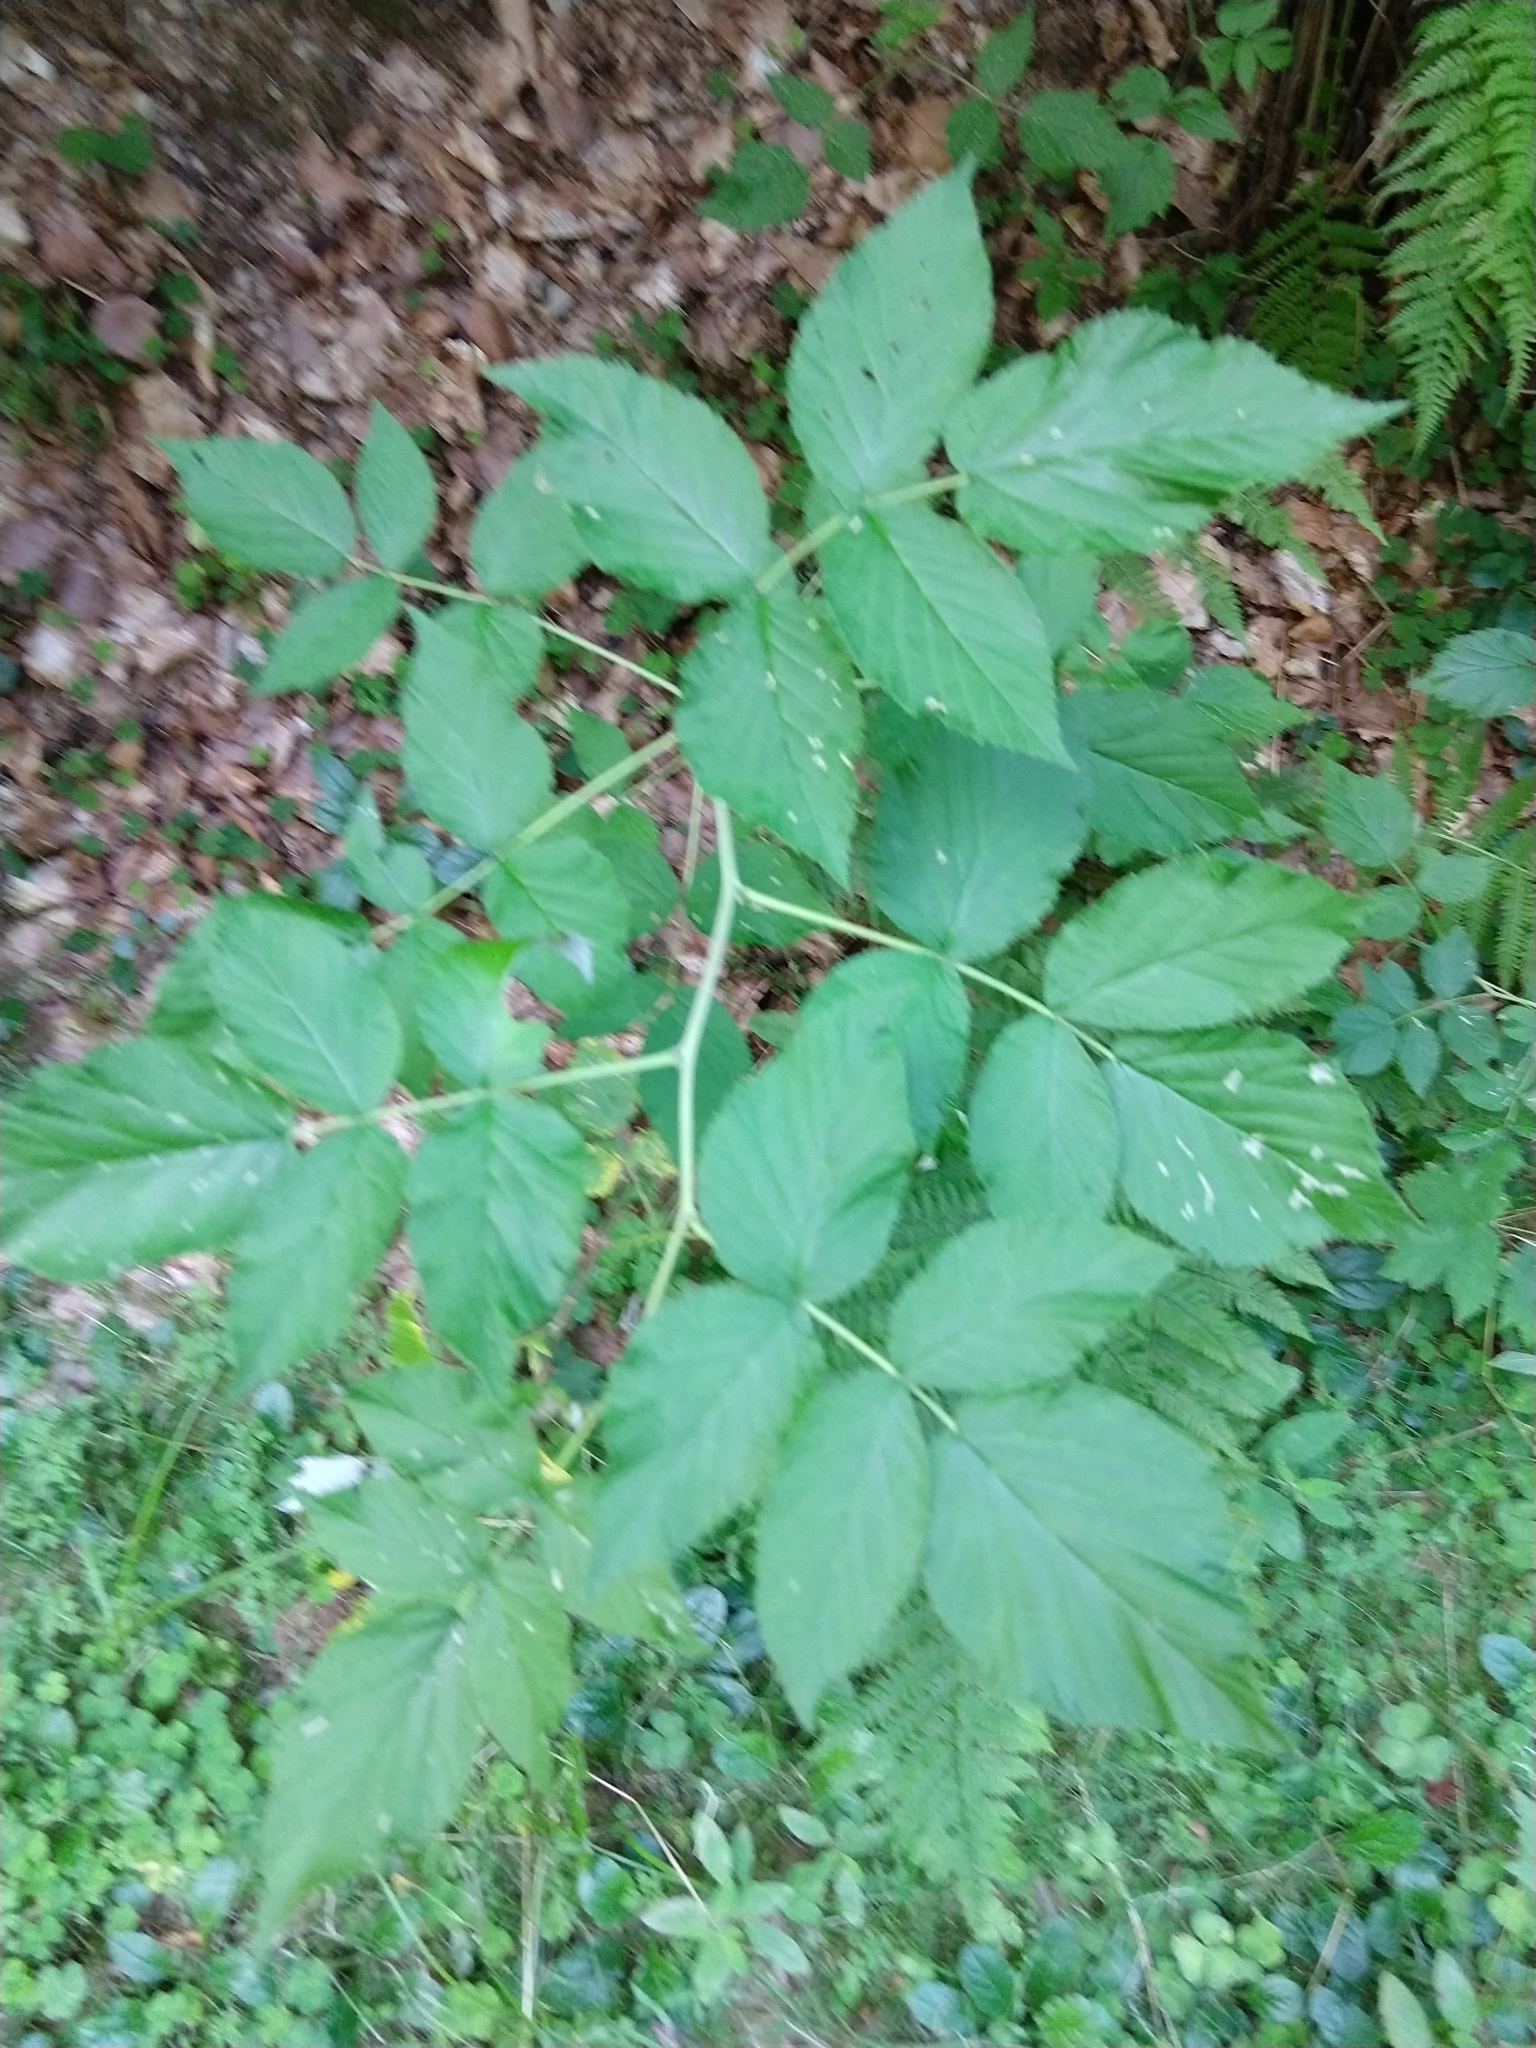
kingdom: Plantae
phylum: Tracheophyta
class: Magnoliopsida
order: Rosales
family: Rosaceae
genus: Rubus
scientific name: Rubus idaeus
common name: Raspberry
